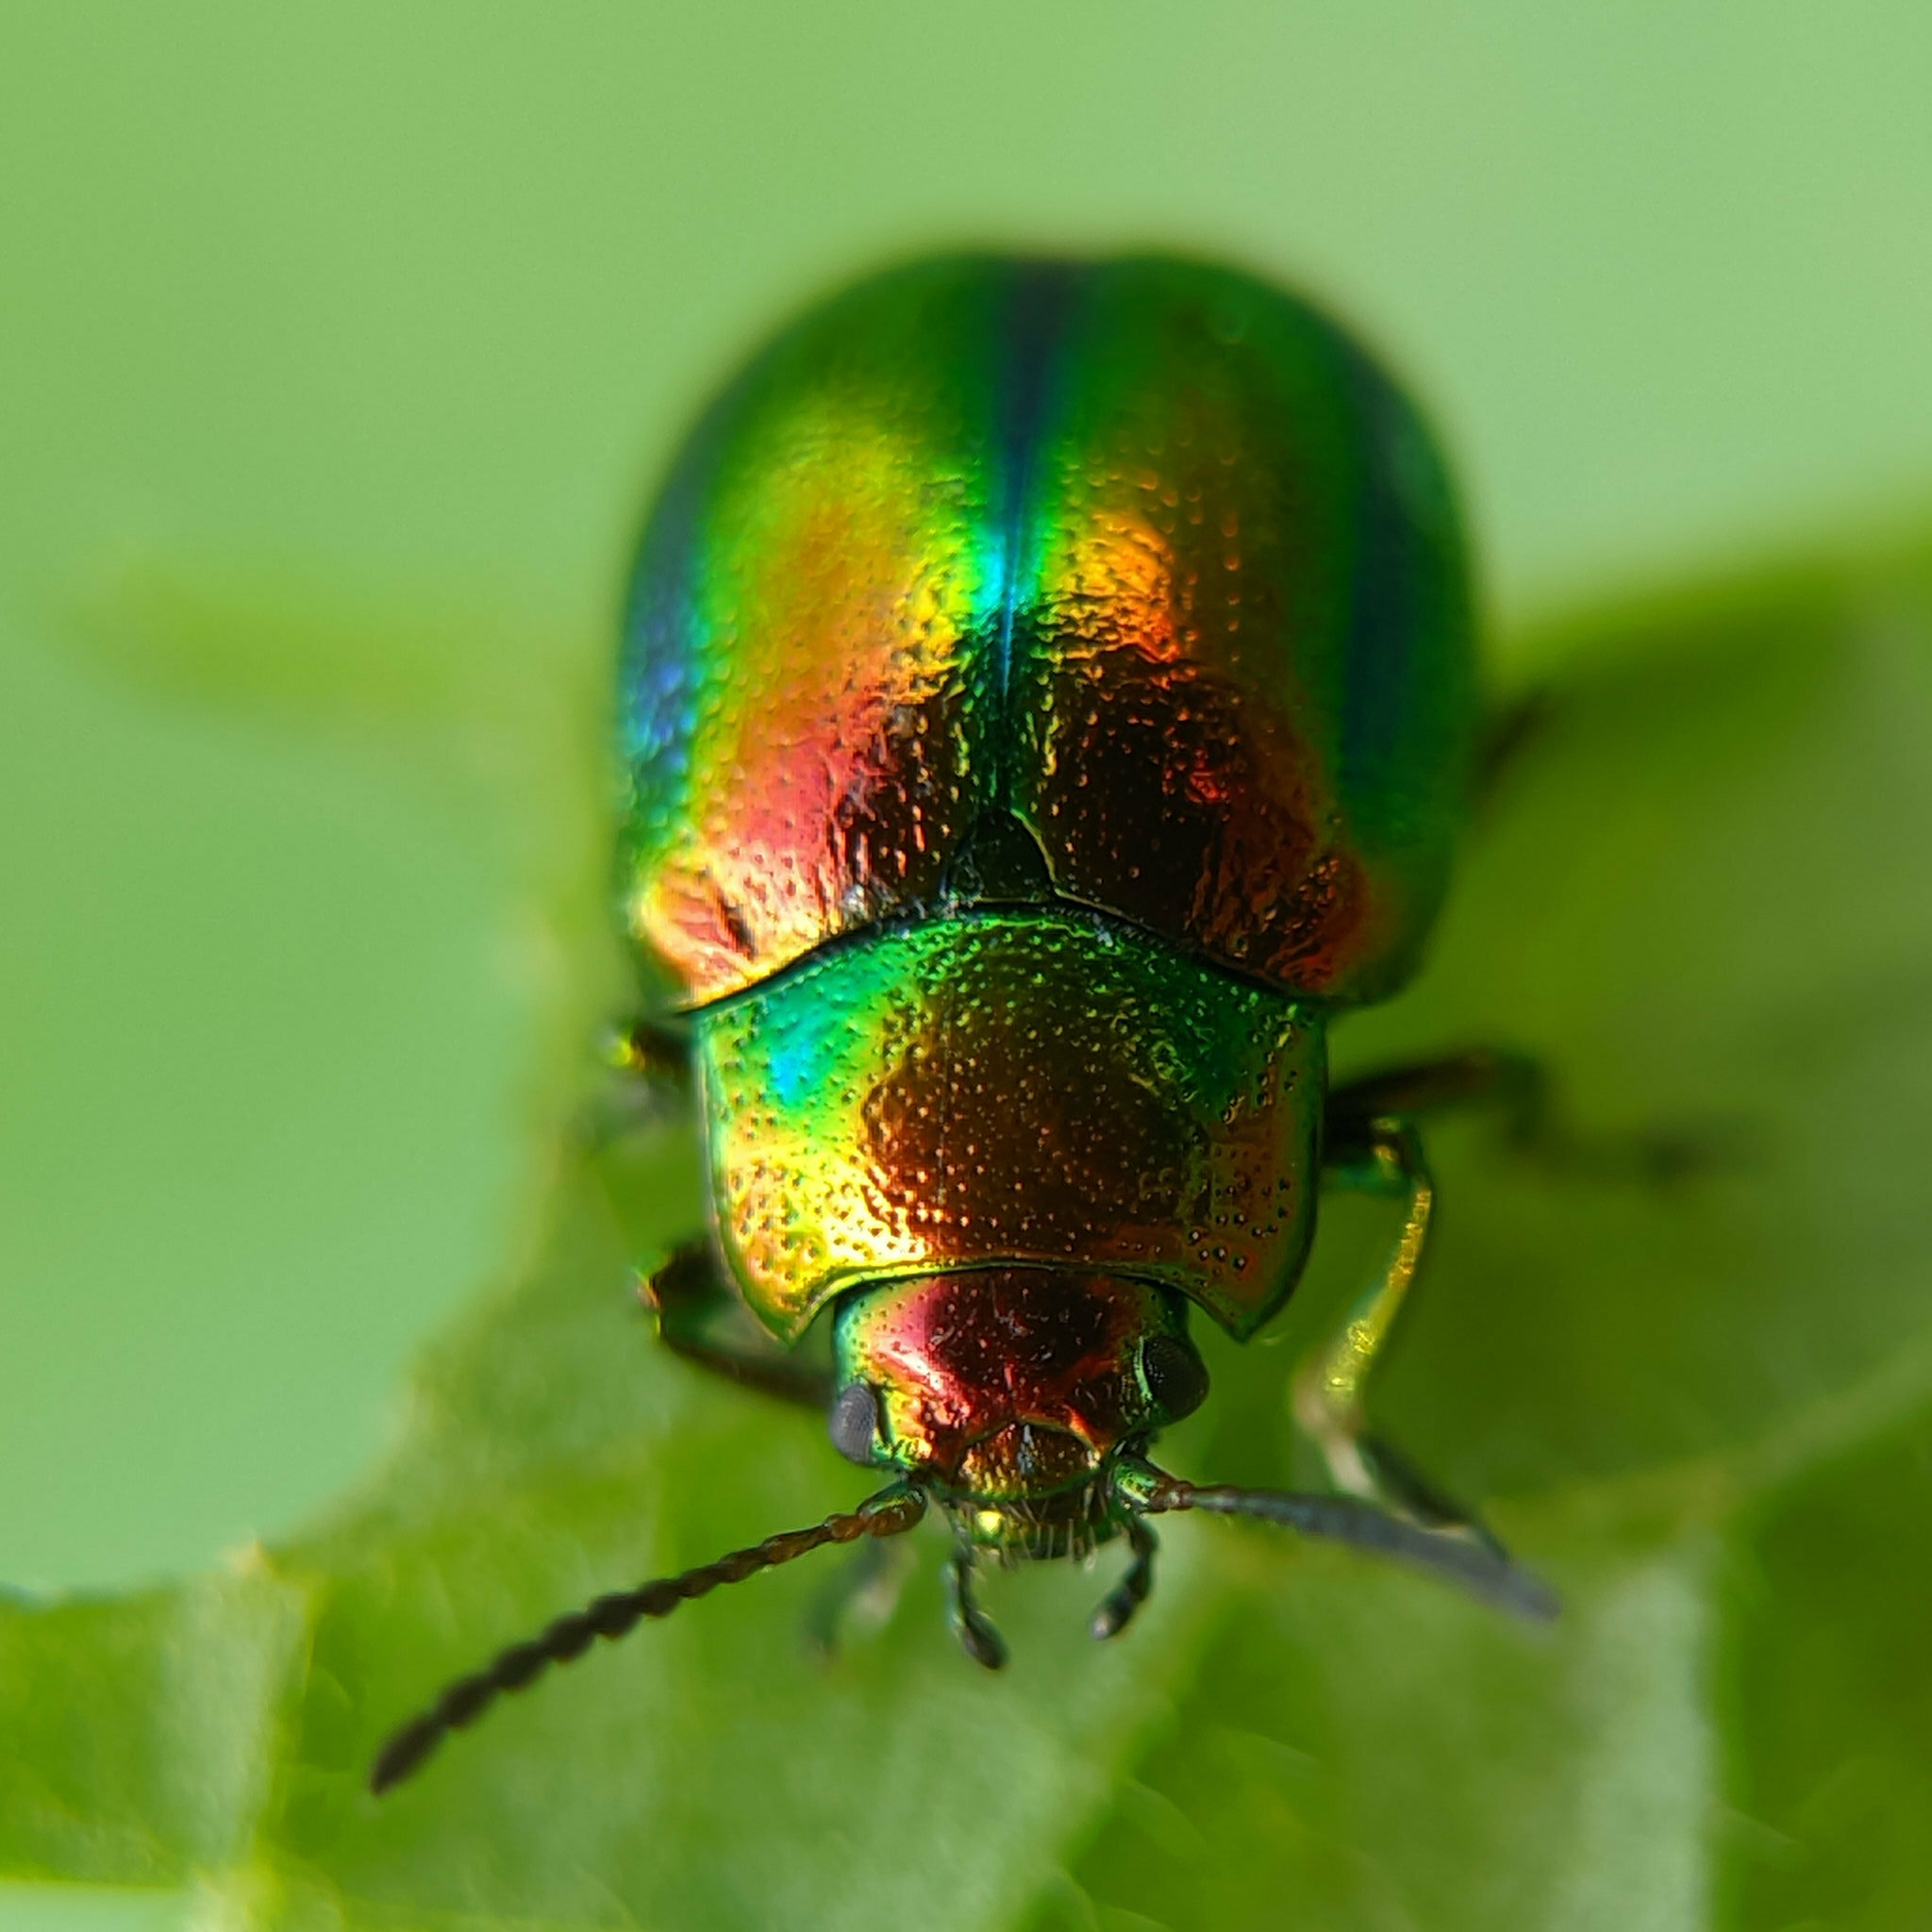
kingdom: Animalia
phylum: Arthropoda
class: Insecta
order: Coleoptera
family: Chrysomelidae
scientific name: Chrysomelidae
